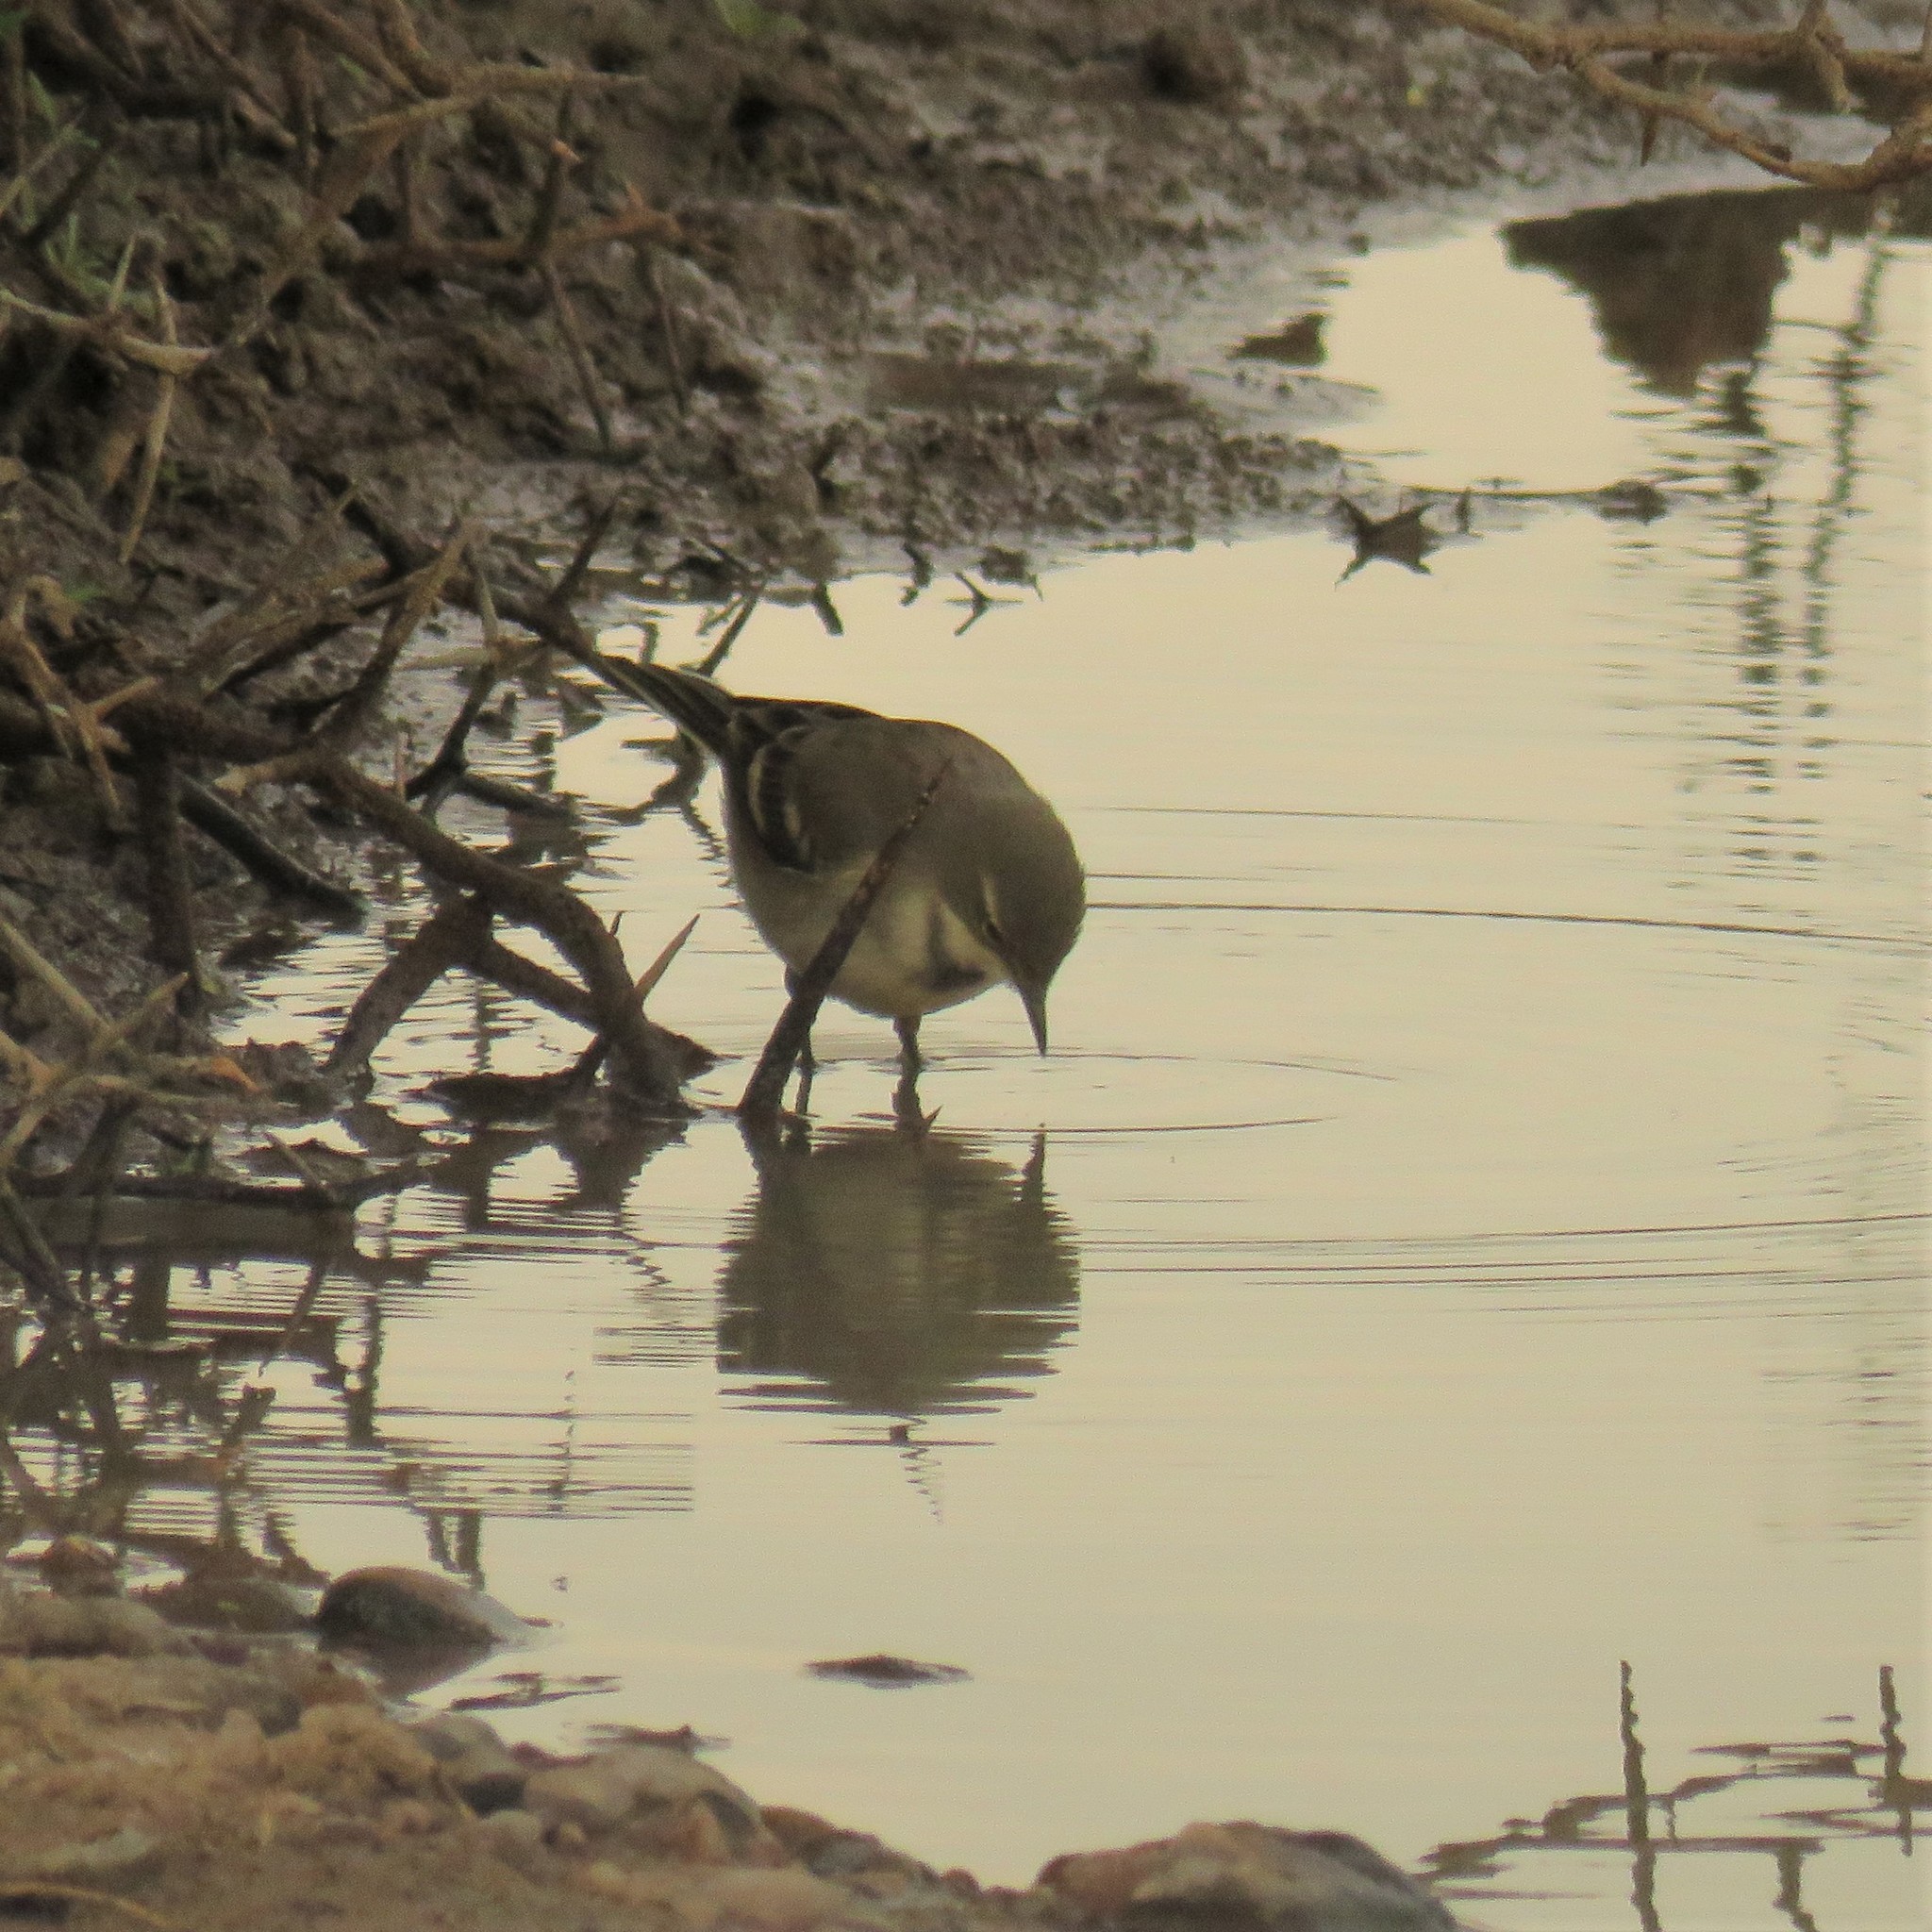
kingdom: Animalia
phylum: Chordata
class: Aves
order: Passeriformes
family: Motacillidae
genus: Motacilla
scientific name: Motacilla capensis
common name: Cape wagtail
